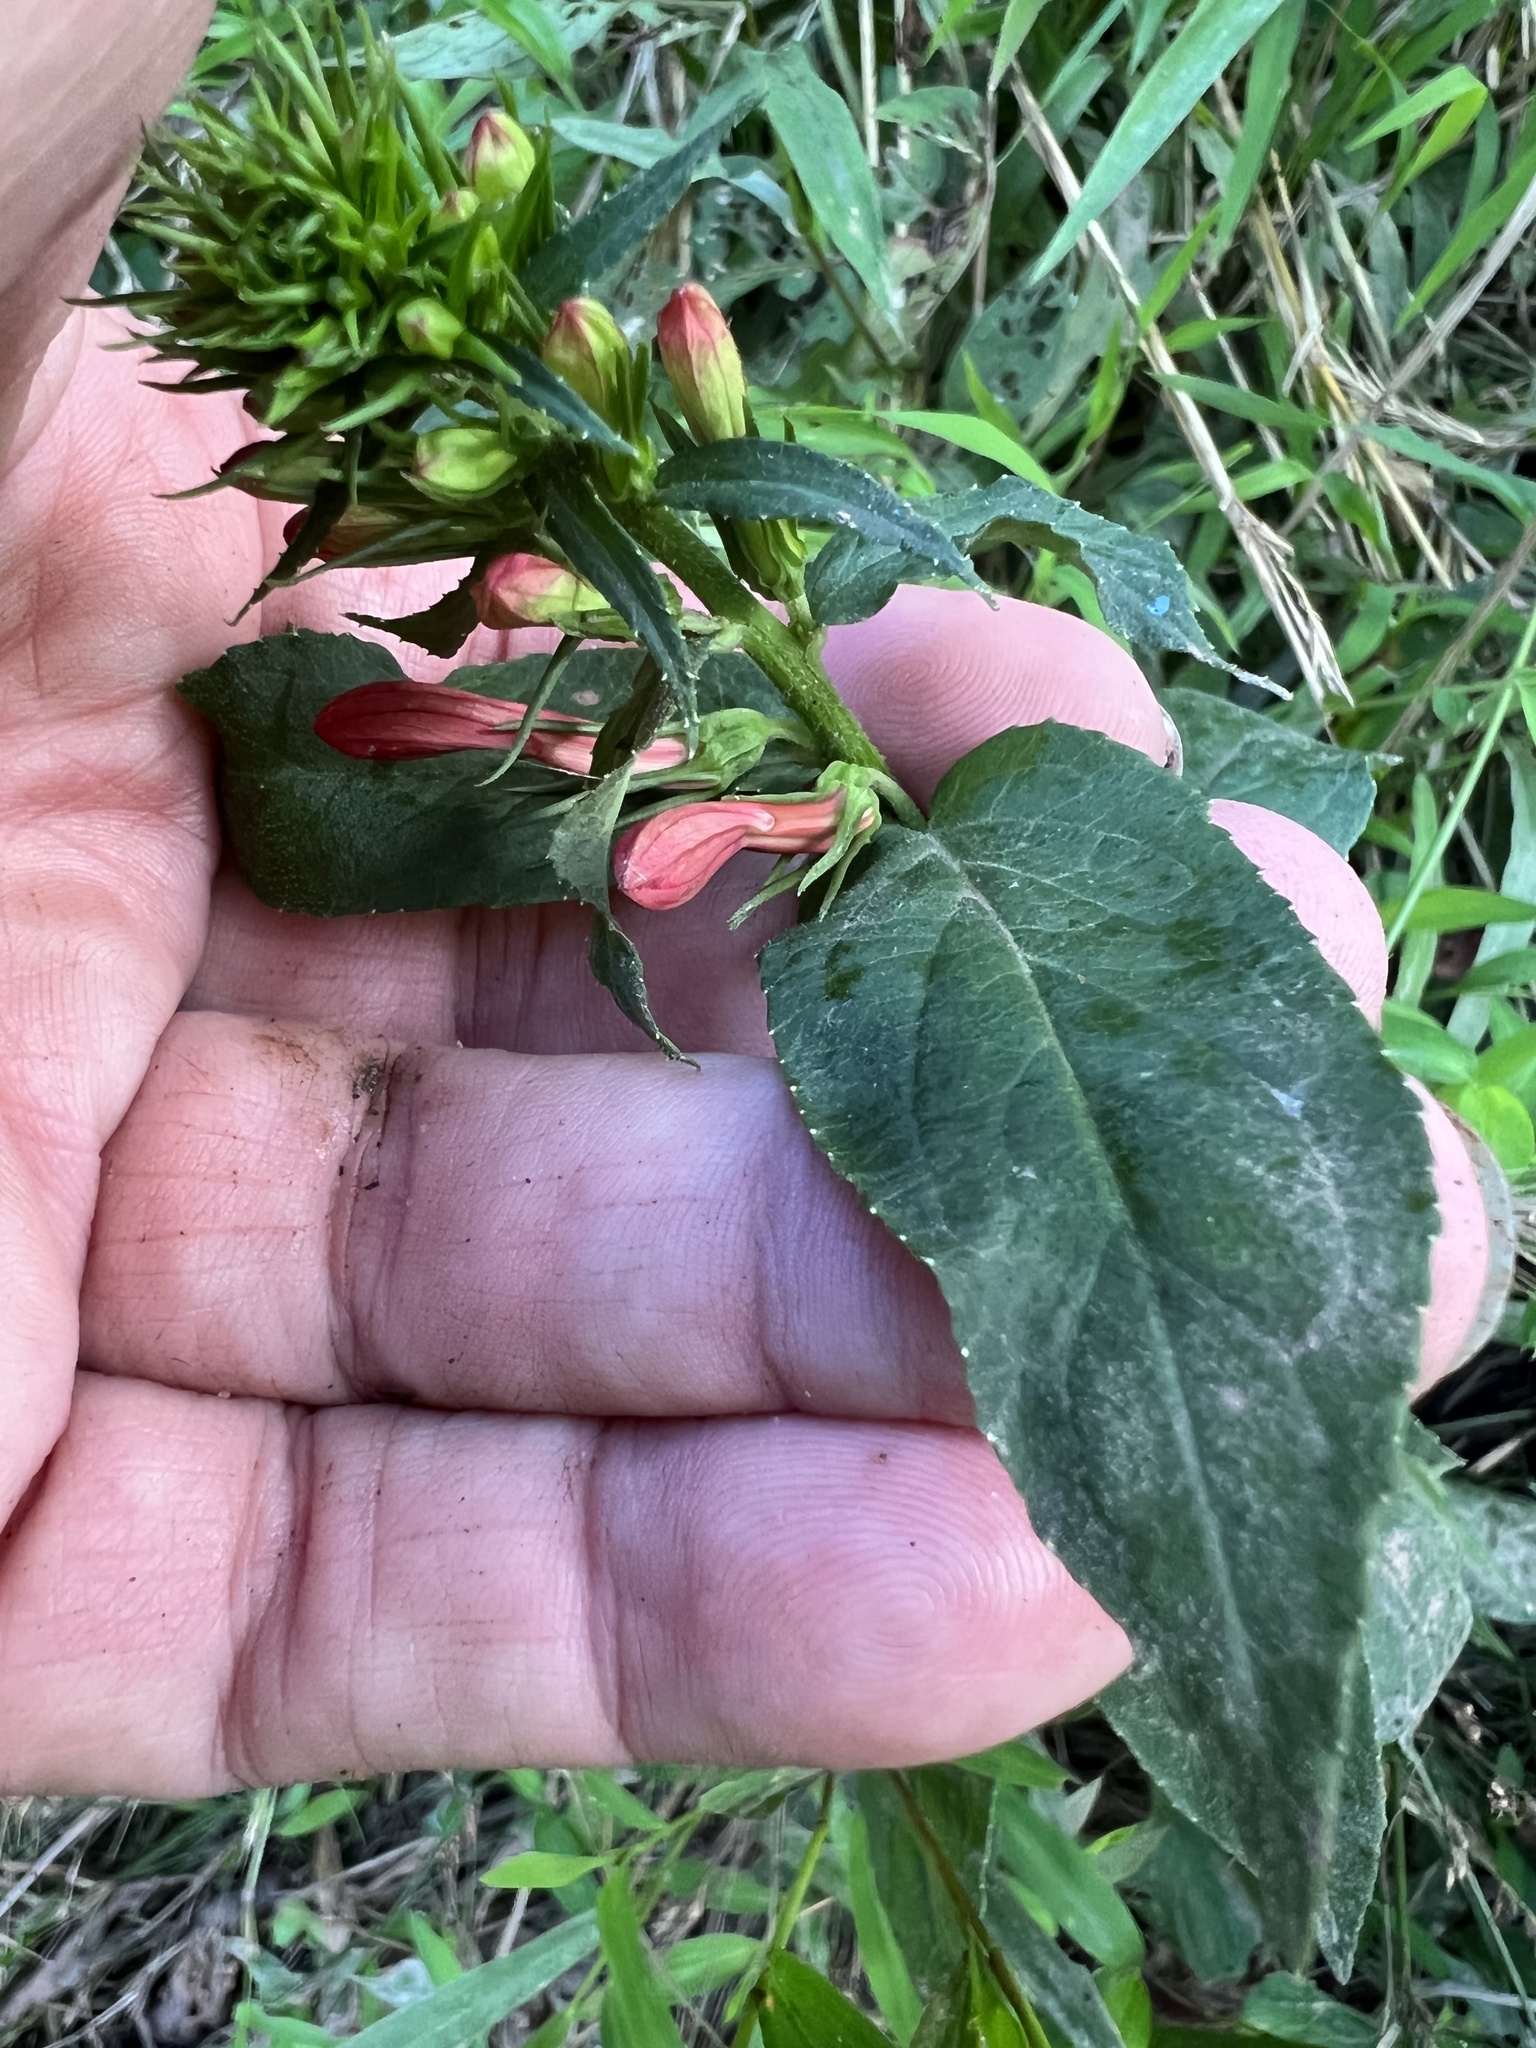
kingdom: Plantae
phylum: Tracheophyta
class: Magnoliopsida
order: Asterales
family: Campanulaceae
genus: Lobelia
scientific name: Lobelia cardinalis
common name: Cardinal flower
